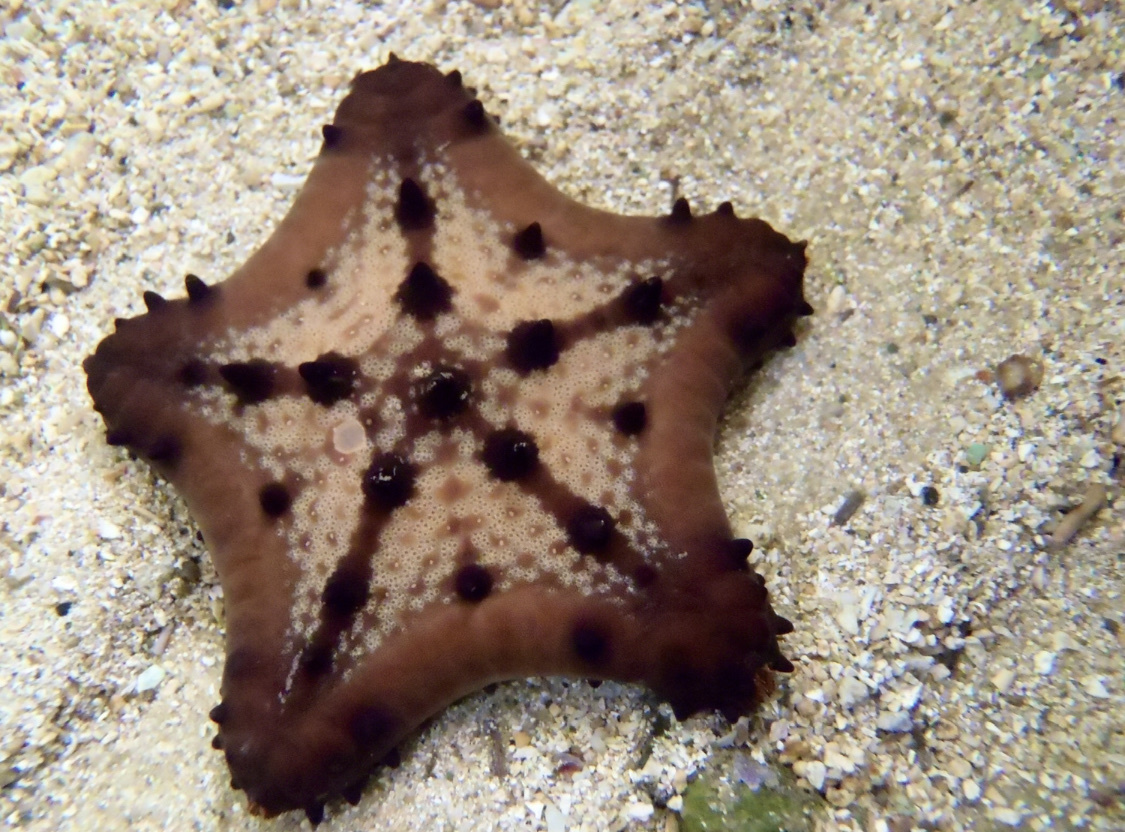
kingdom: Animalia
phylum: Echinodermata
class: Asteroidea
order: Valvatida
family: Oreasteridae
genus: Nidorellia
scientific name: Nidorellia armata
